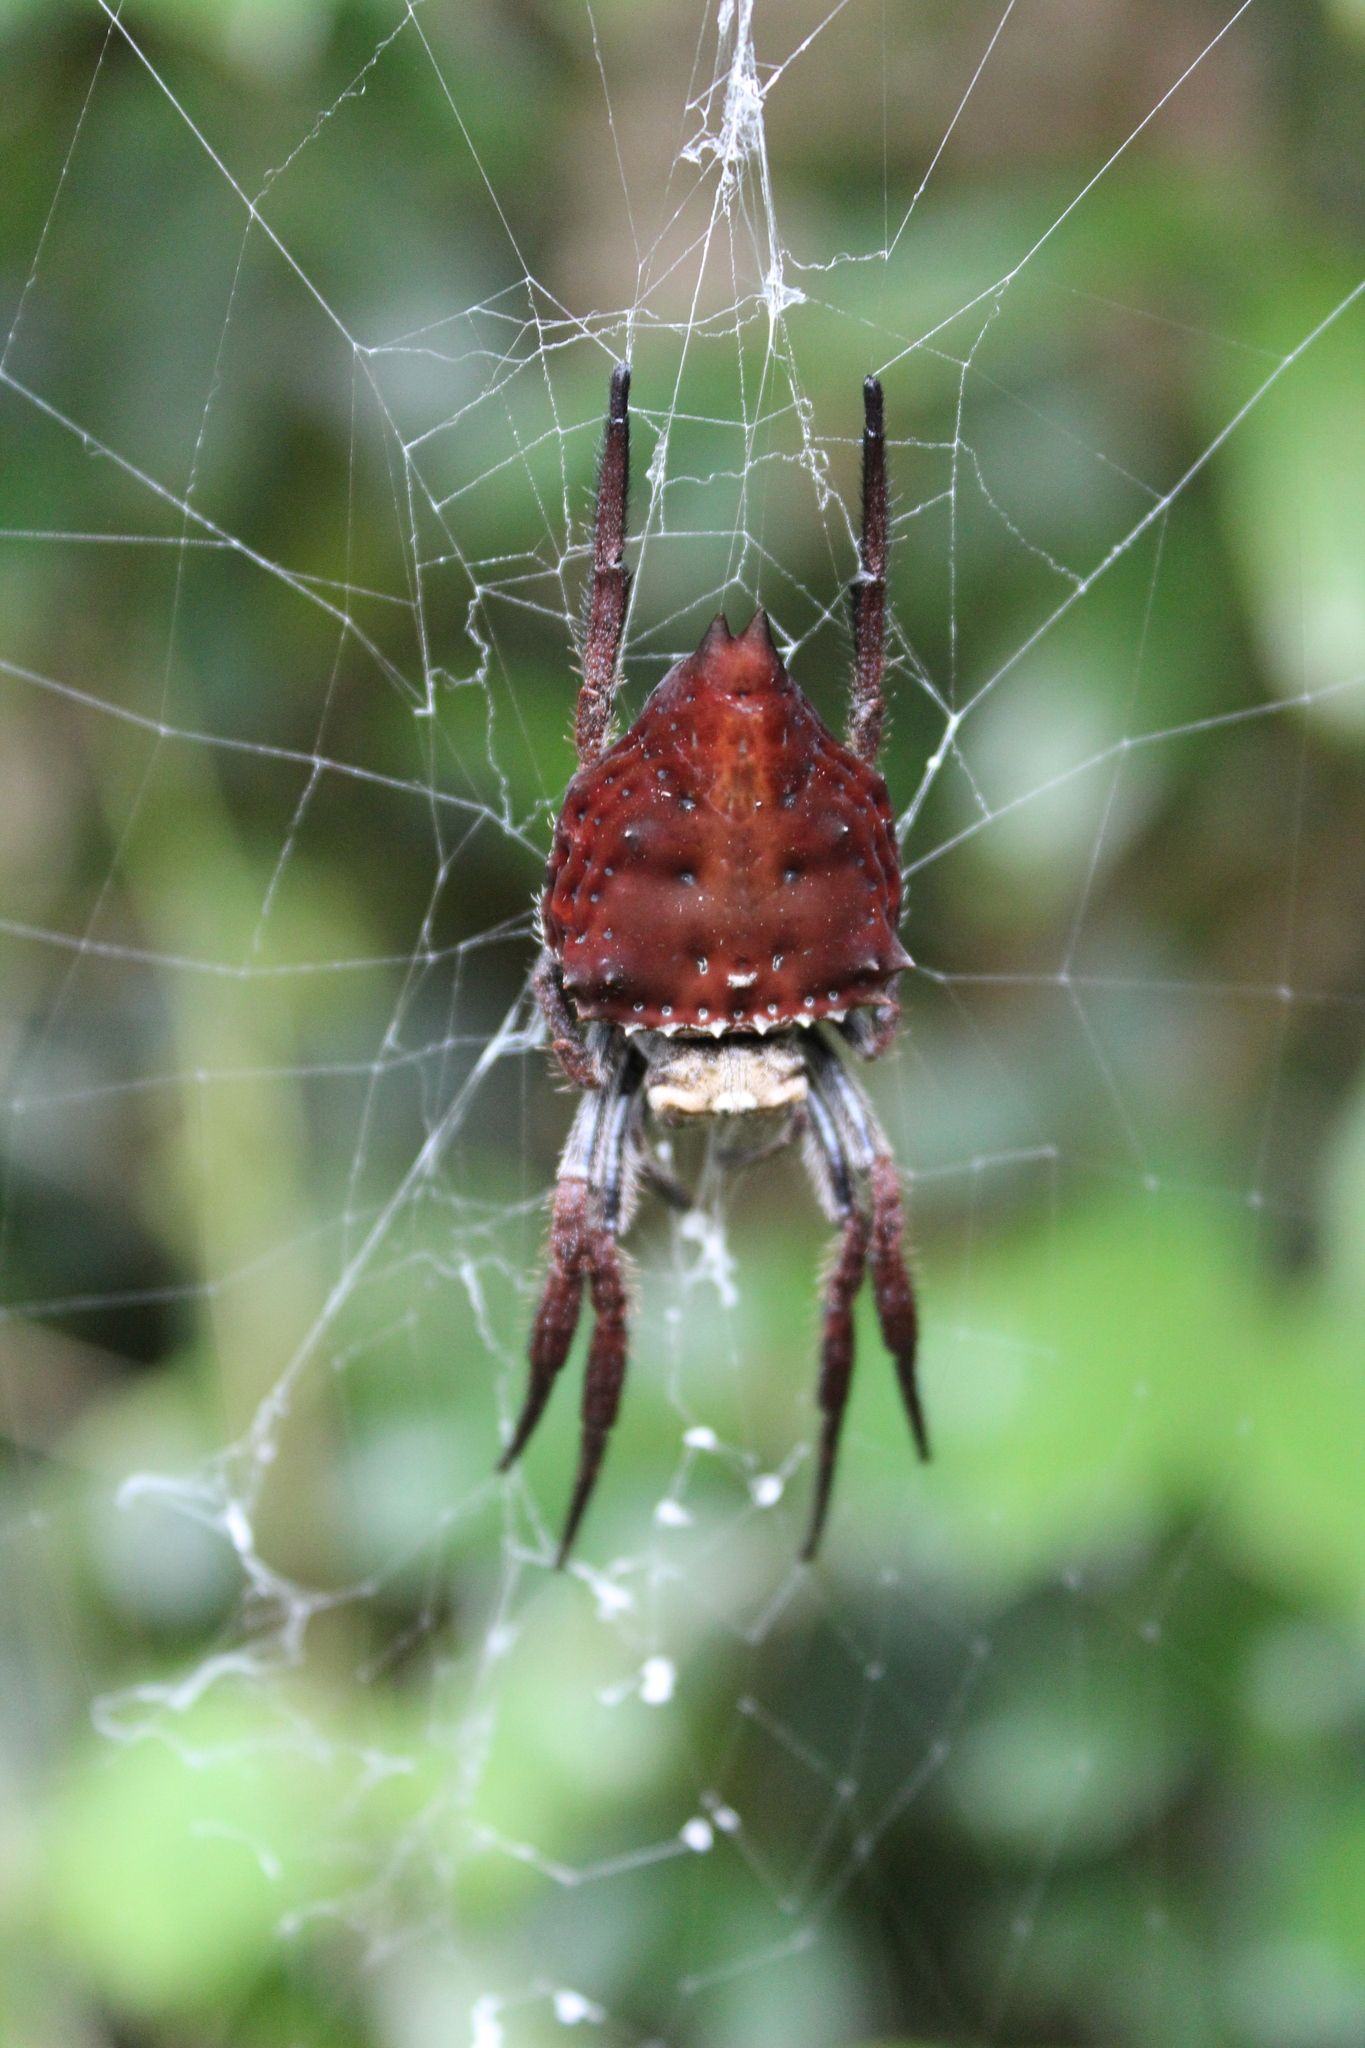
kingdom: Animalia
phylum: Arthropoda
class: Arachnida
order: Araneae
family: Araneidae
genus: Caerostris
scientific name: Caerostris extrusa
